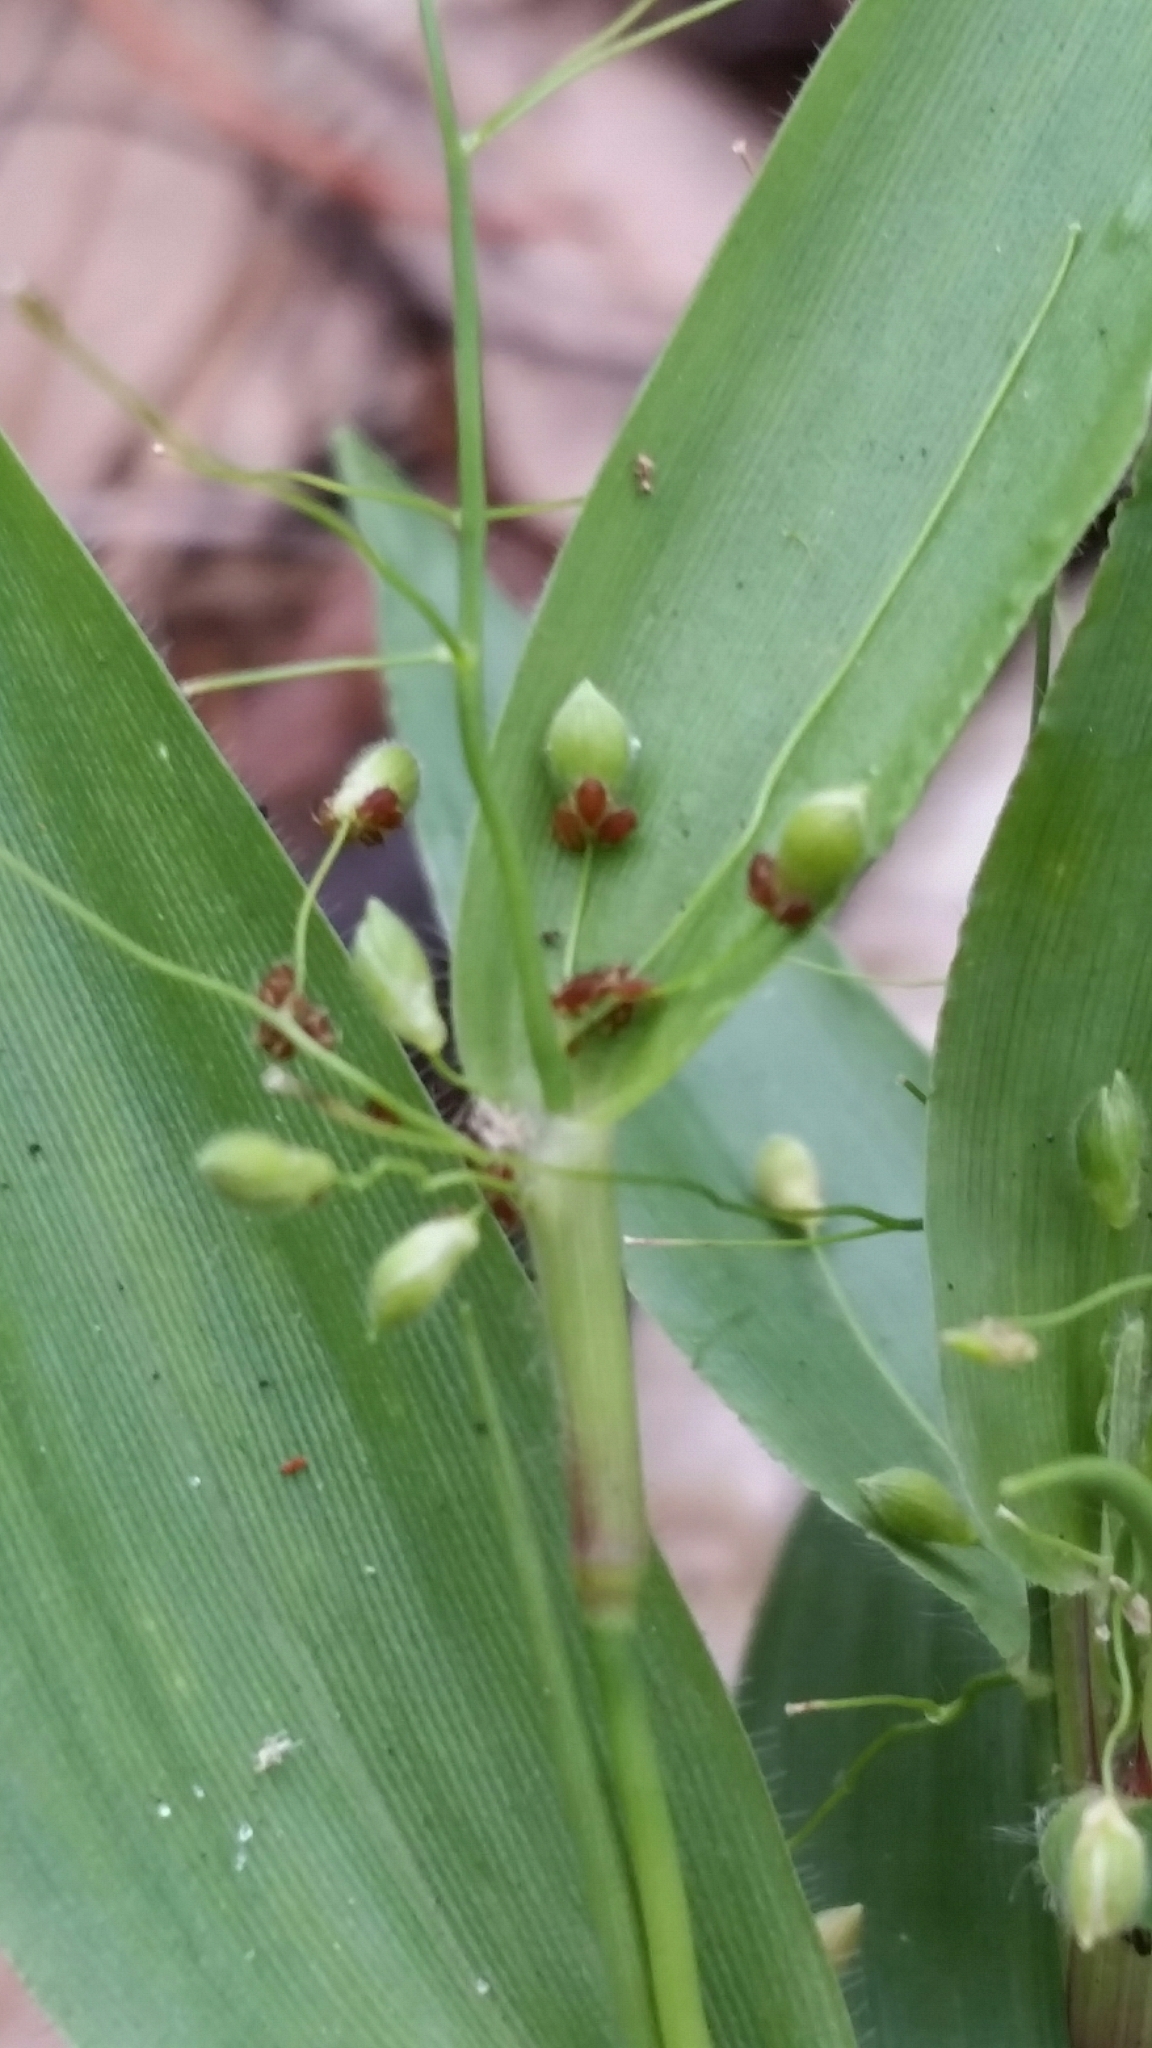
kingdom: Plantae
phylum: Tracheophyta
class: Liliopsida
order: Poales
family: Poaceae
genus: Dichanthelium
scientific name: Dichanthelium commutatum
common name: Variable witchgrass
